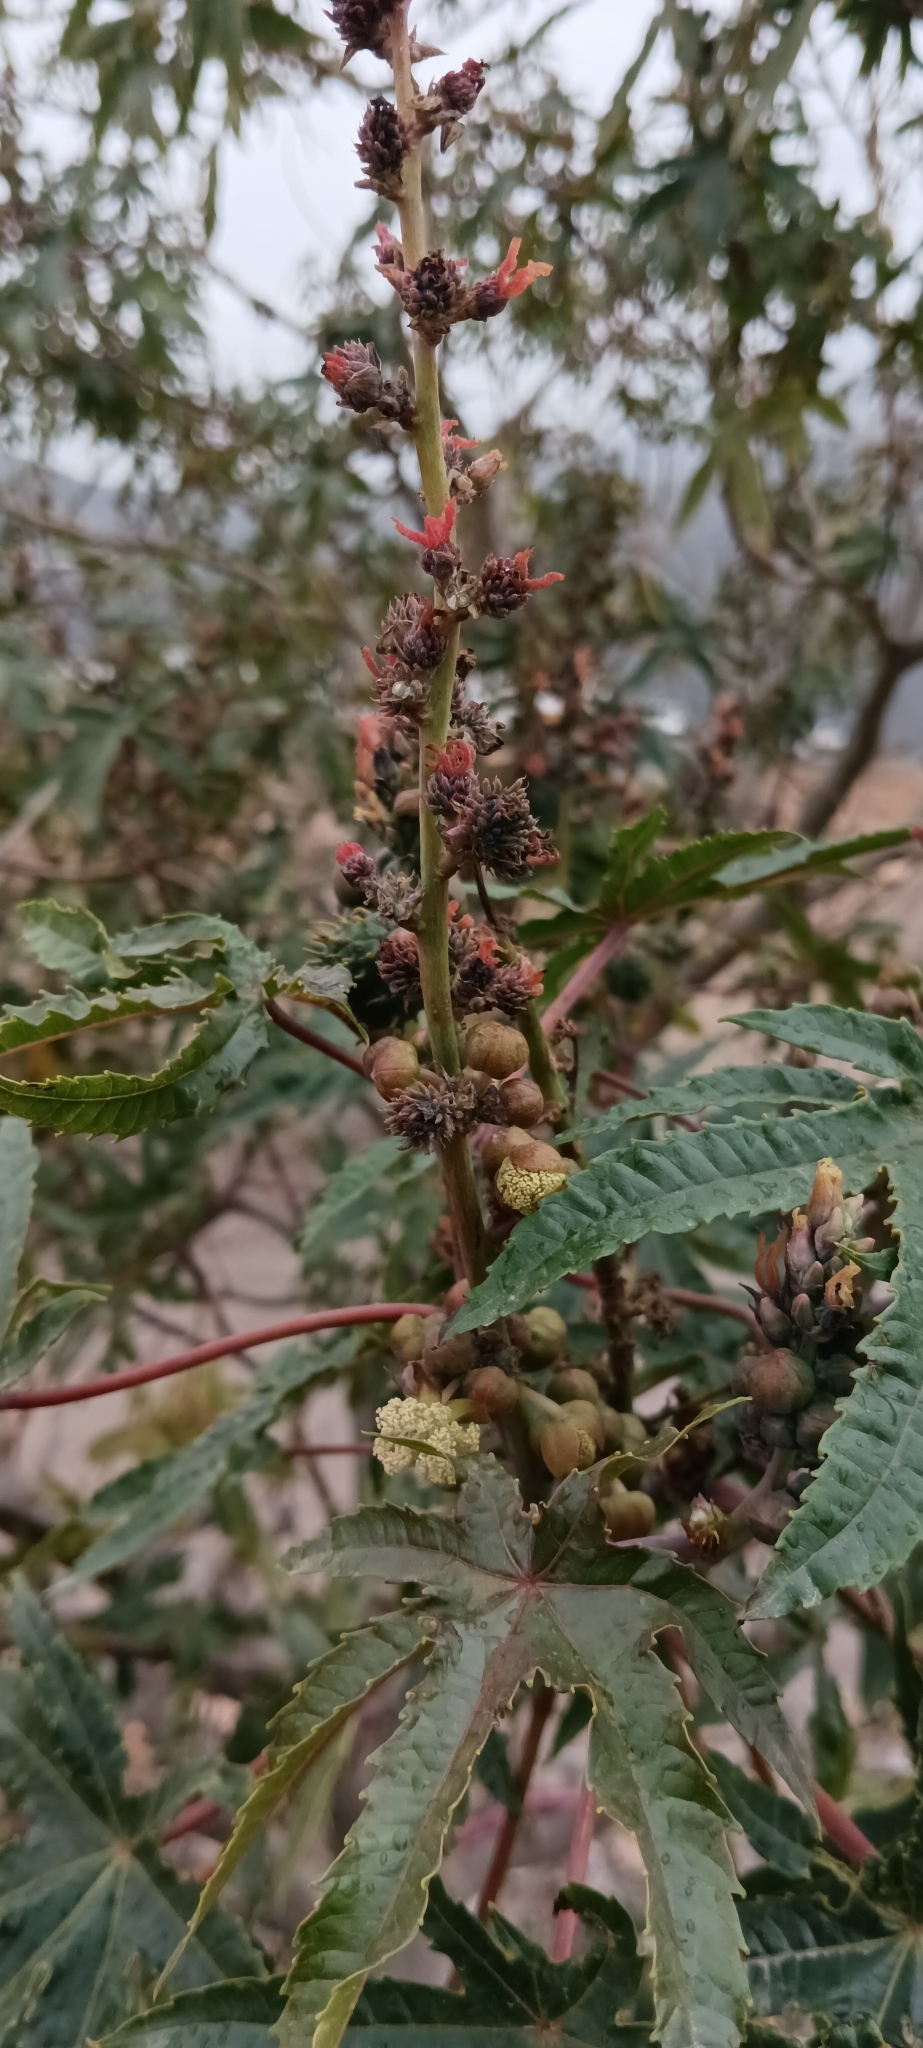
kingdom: Plantae
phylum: Tracheophyta
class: Magnoliopsida
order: Malpighiales
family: Euphorbiaceae
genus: Ricinus
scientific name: Ricinus communis
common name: Castor-oil-plant
